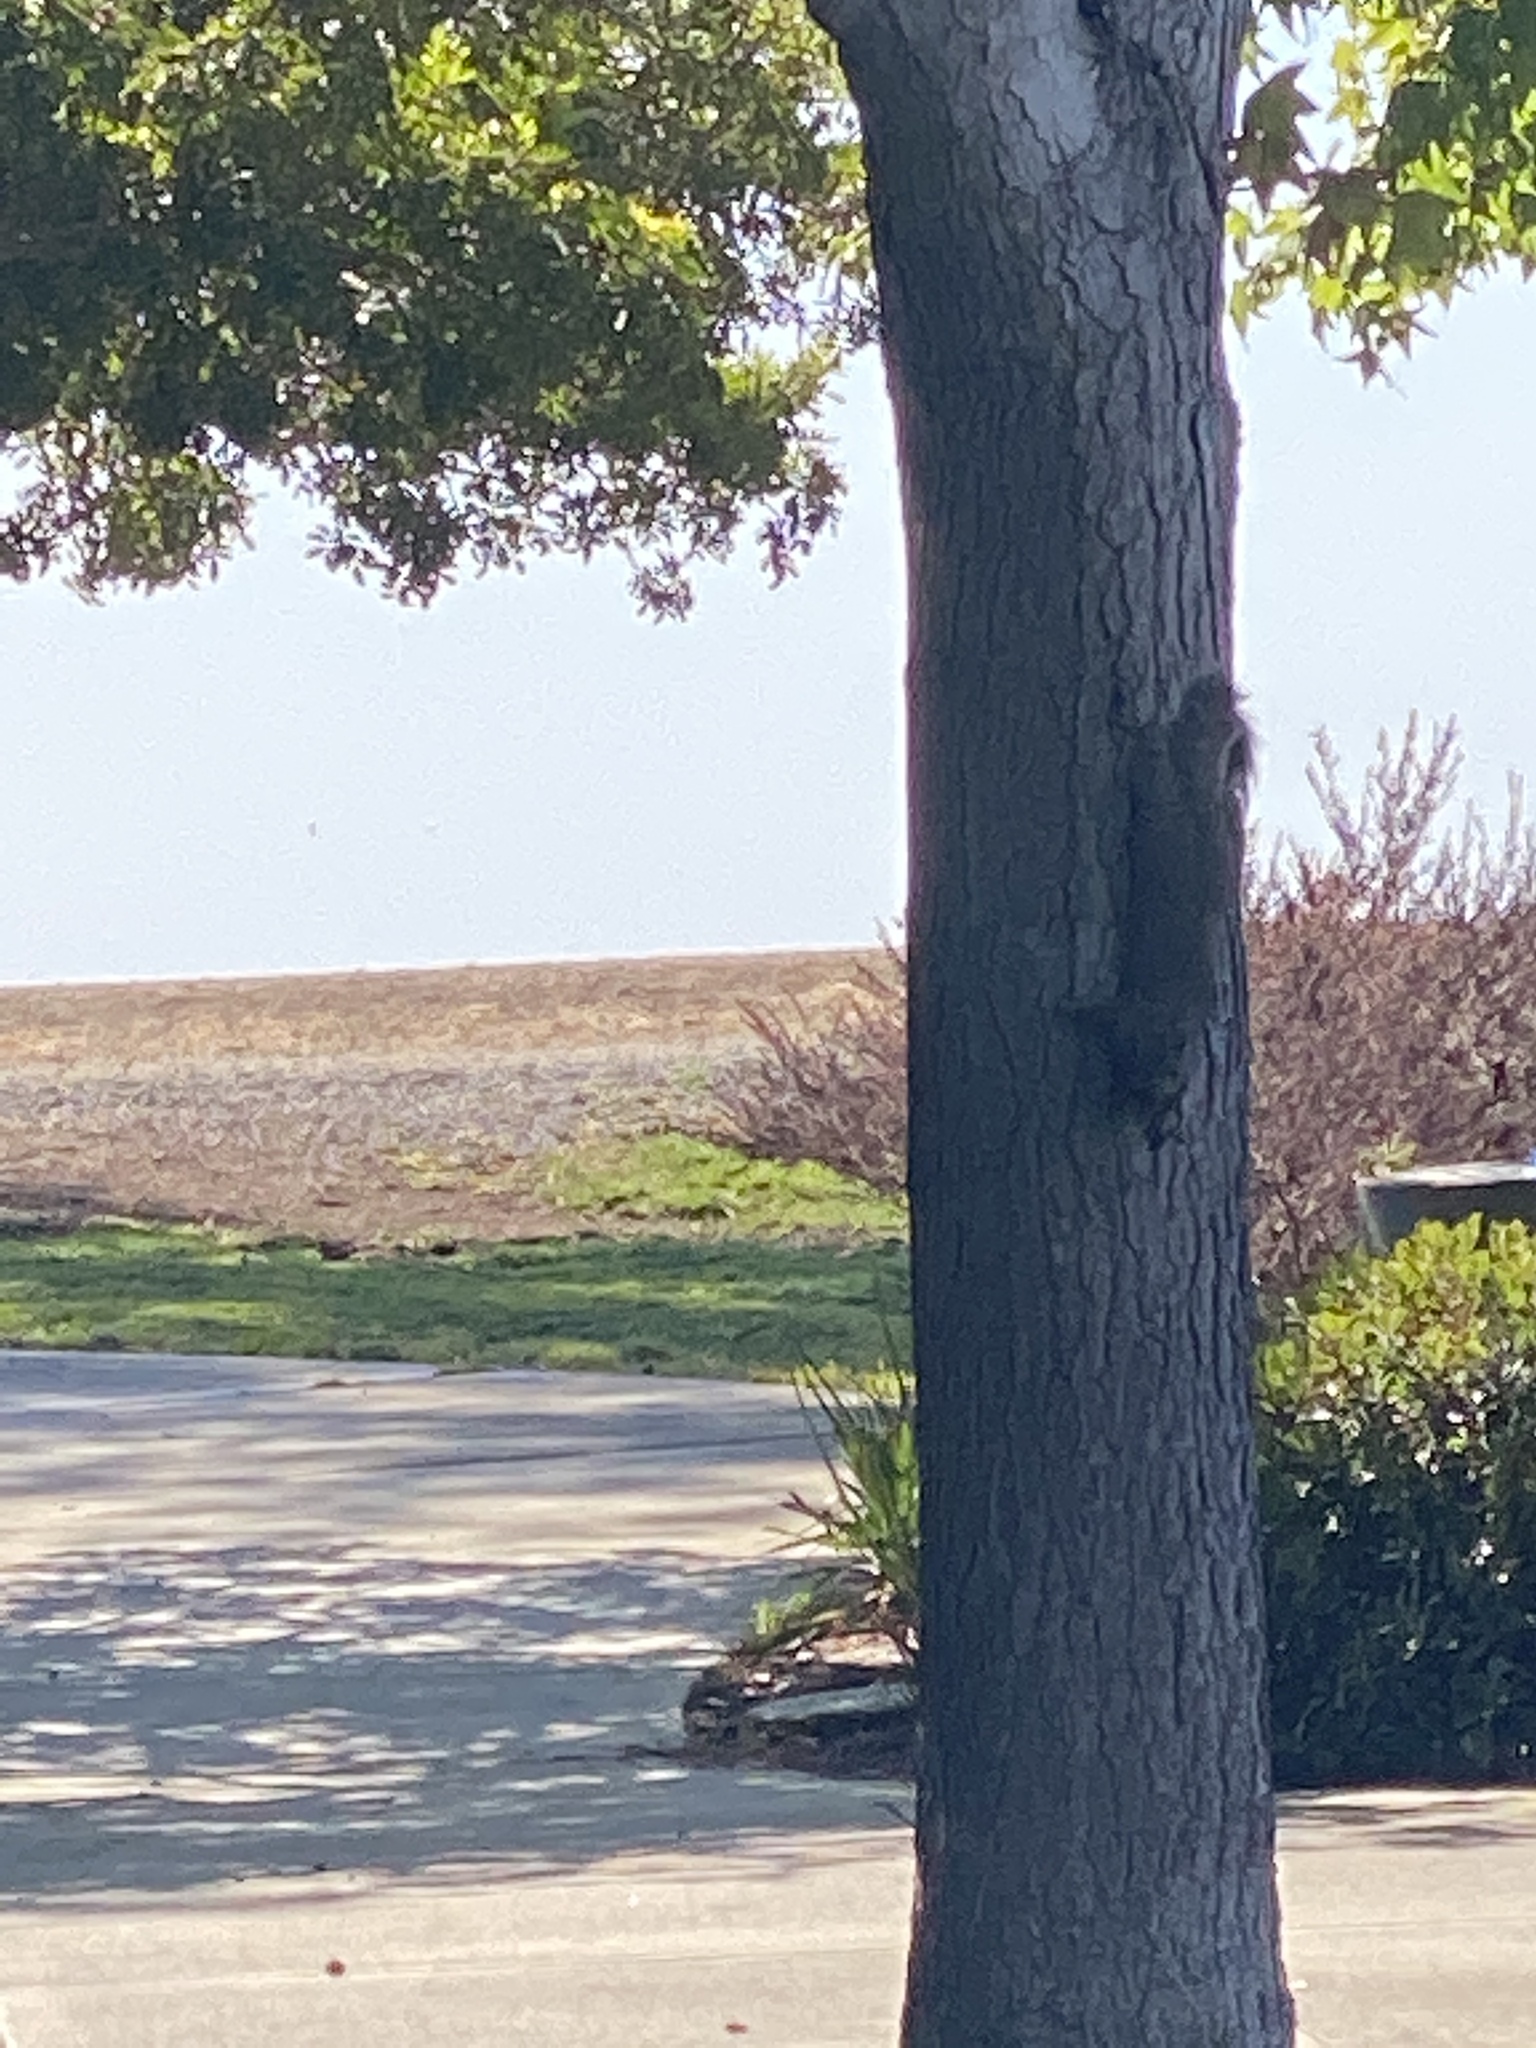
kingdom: Animalia
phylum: Chordata
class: Mammalia
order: Rodentia
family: Sciuridae
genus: Sciurus
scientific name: Sciurus carolinensis
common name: Eastern gray squirrel
